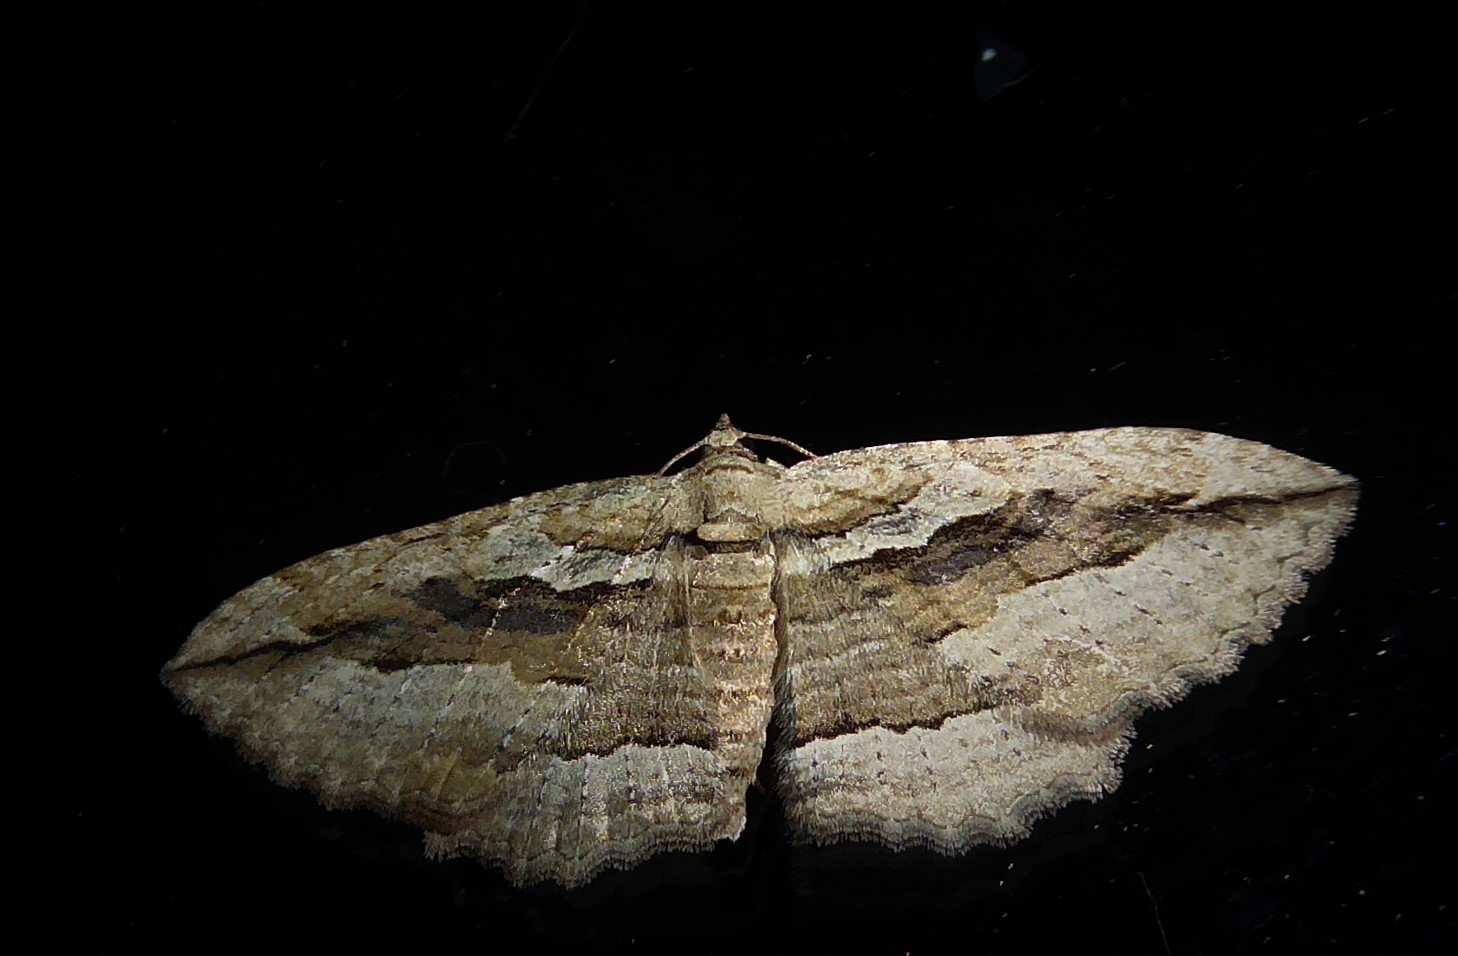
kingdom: Animalia
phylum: Arthropoda
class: Insecta
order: Lepidoptera
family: Geometridae
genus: Austrocidaria
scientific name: Austrocidaria gobiata
